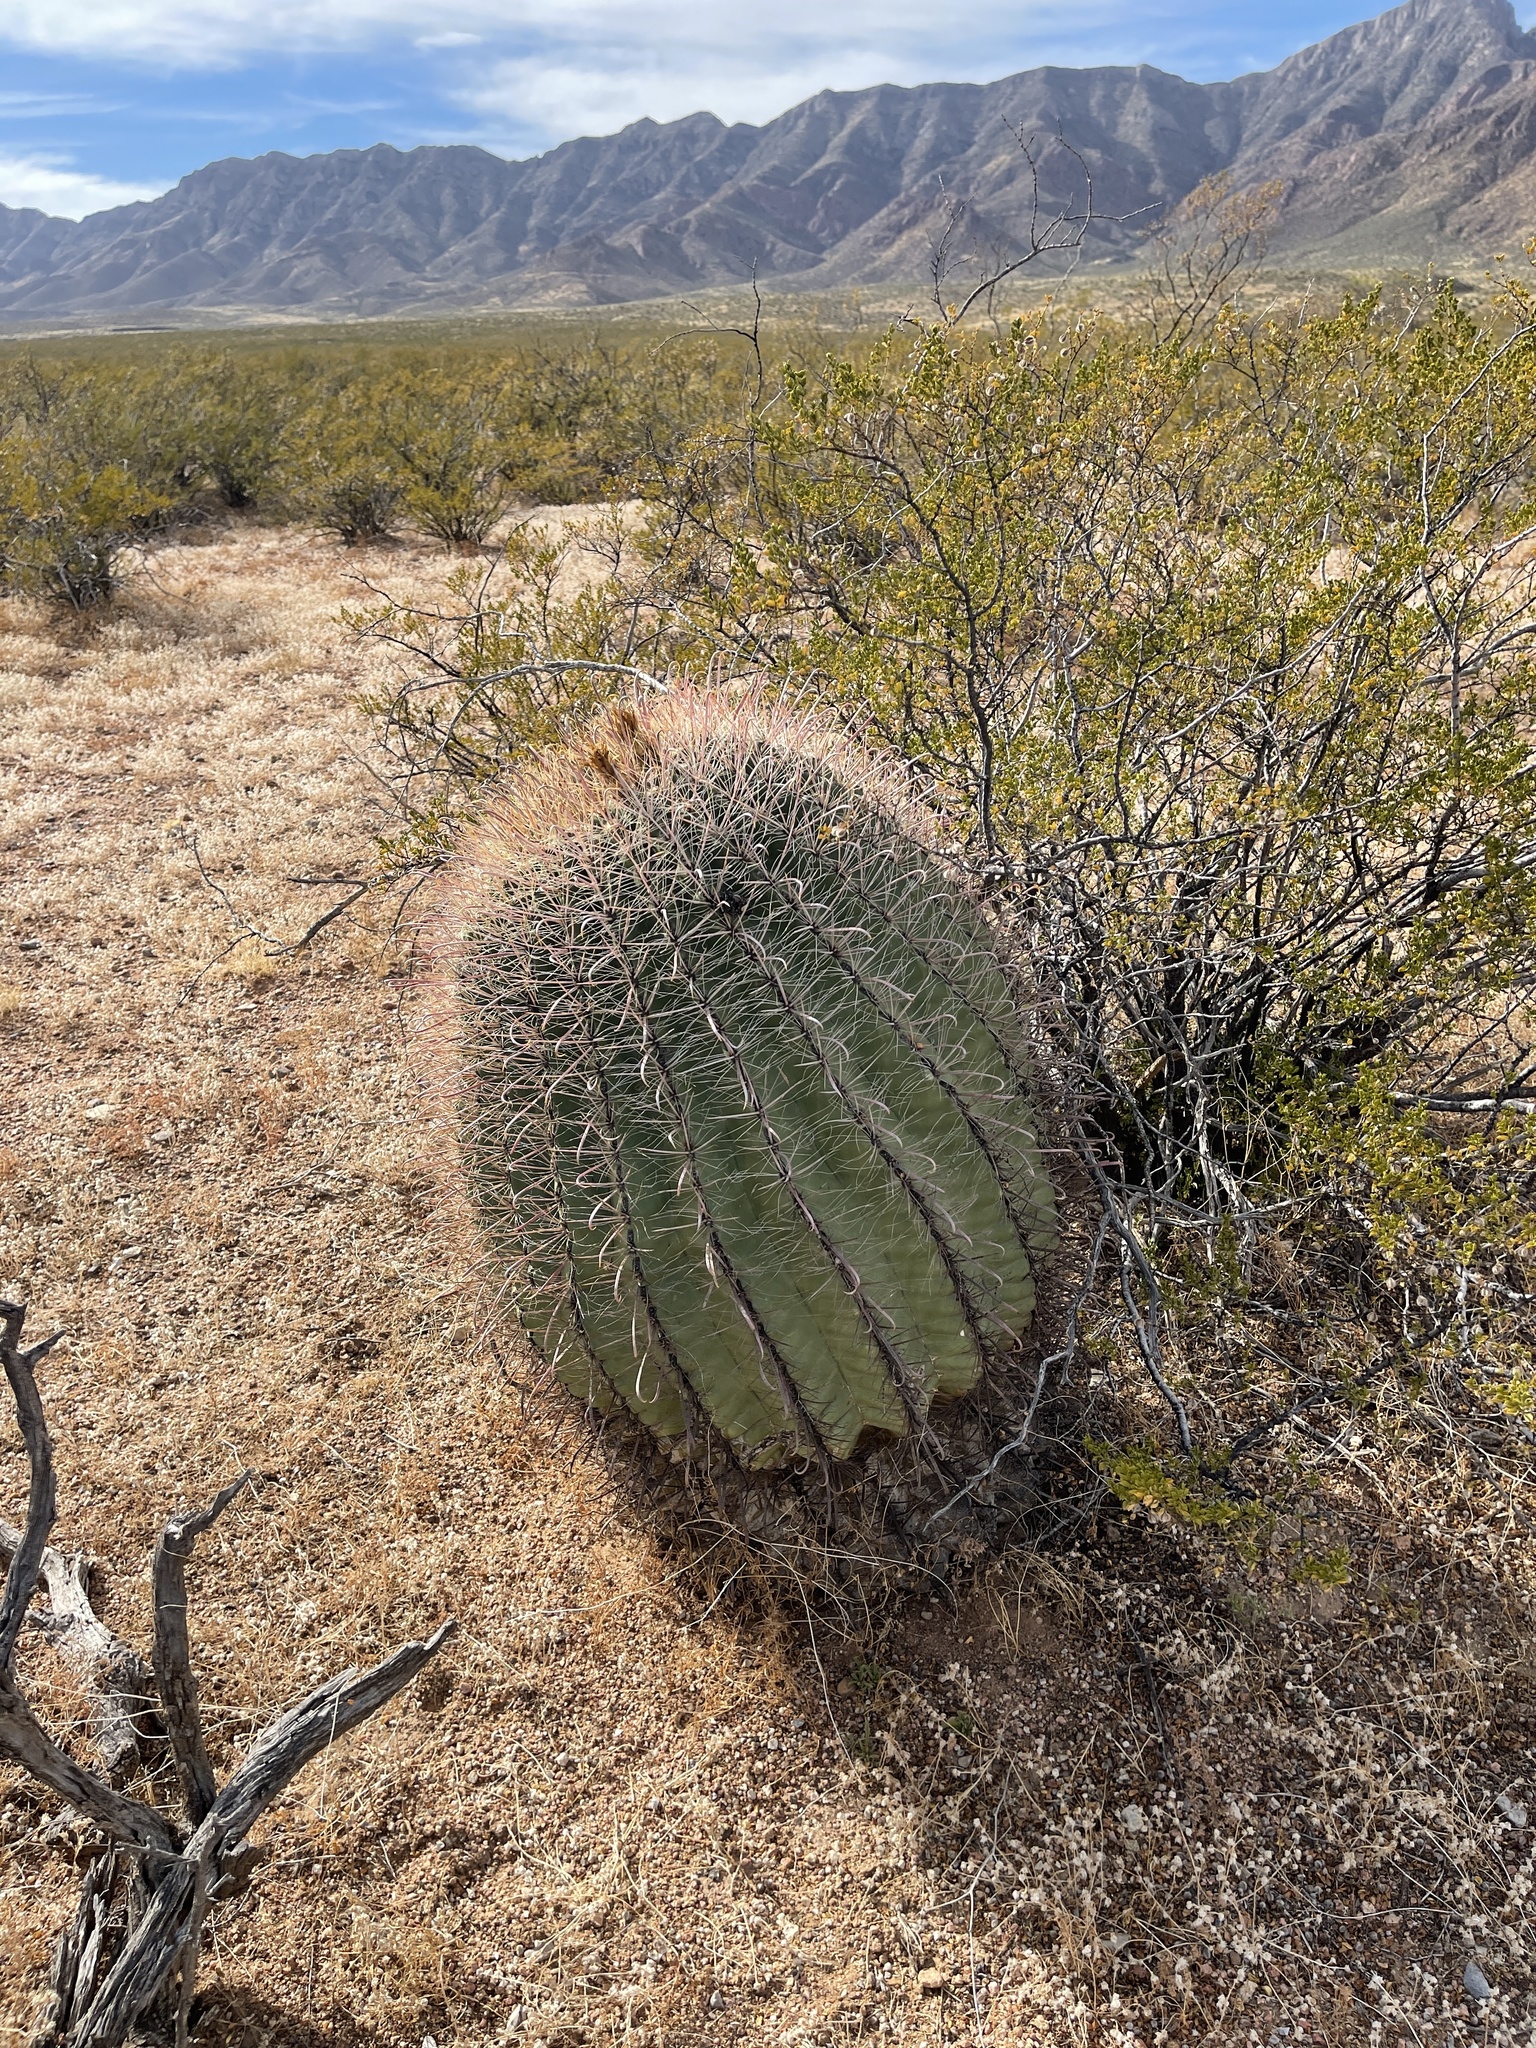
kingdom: Plantae
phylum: Tracheophyta
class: Magnoliopsida
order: Caryophyllales
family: Cactaceae
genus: Ferocactus
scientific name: Ferocactus wislizeni
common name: Candy barrel cactus
